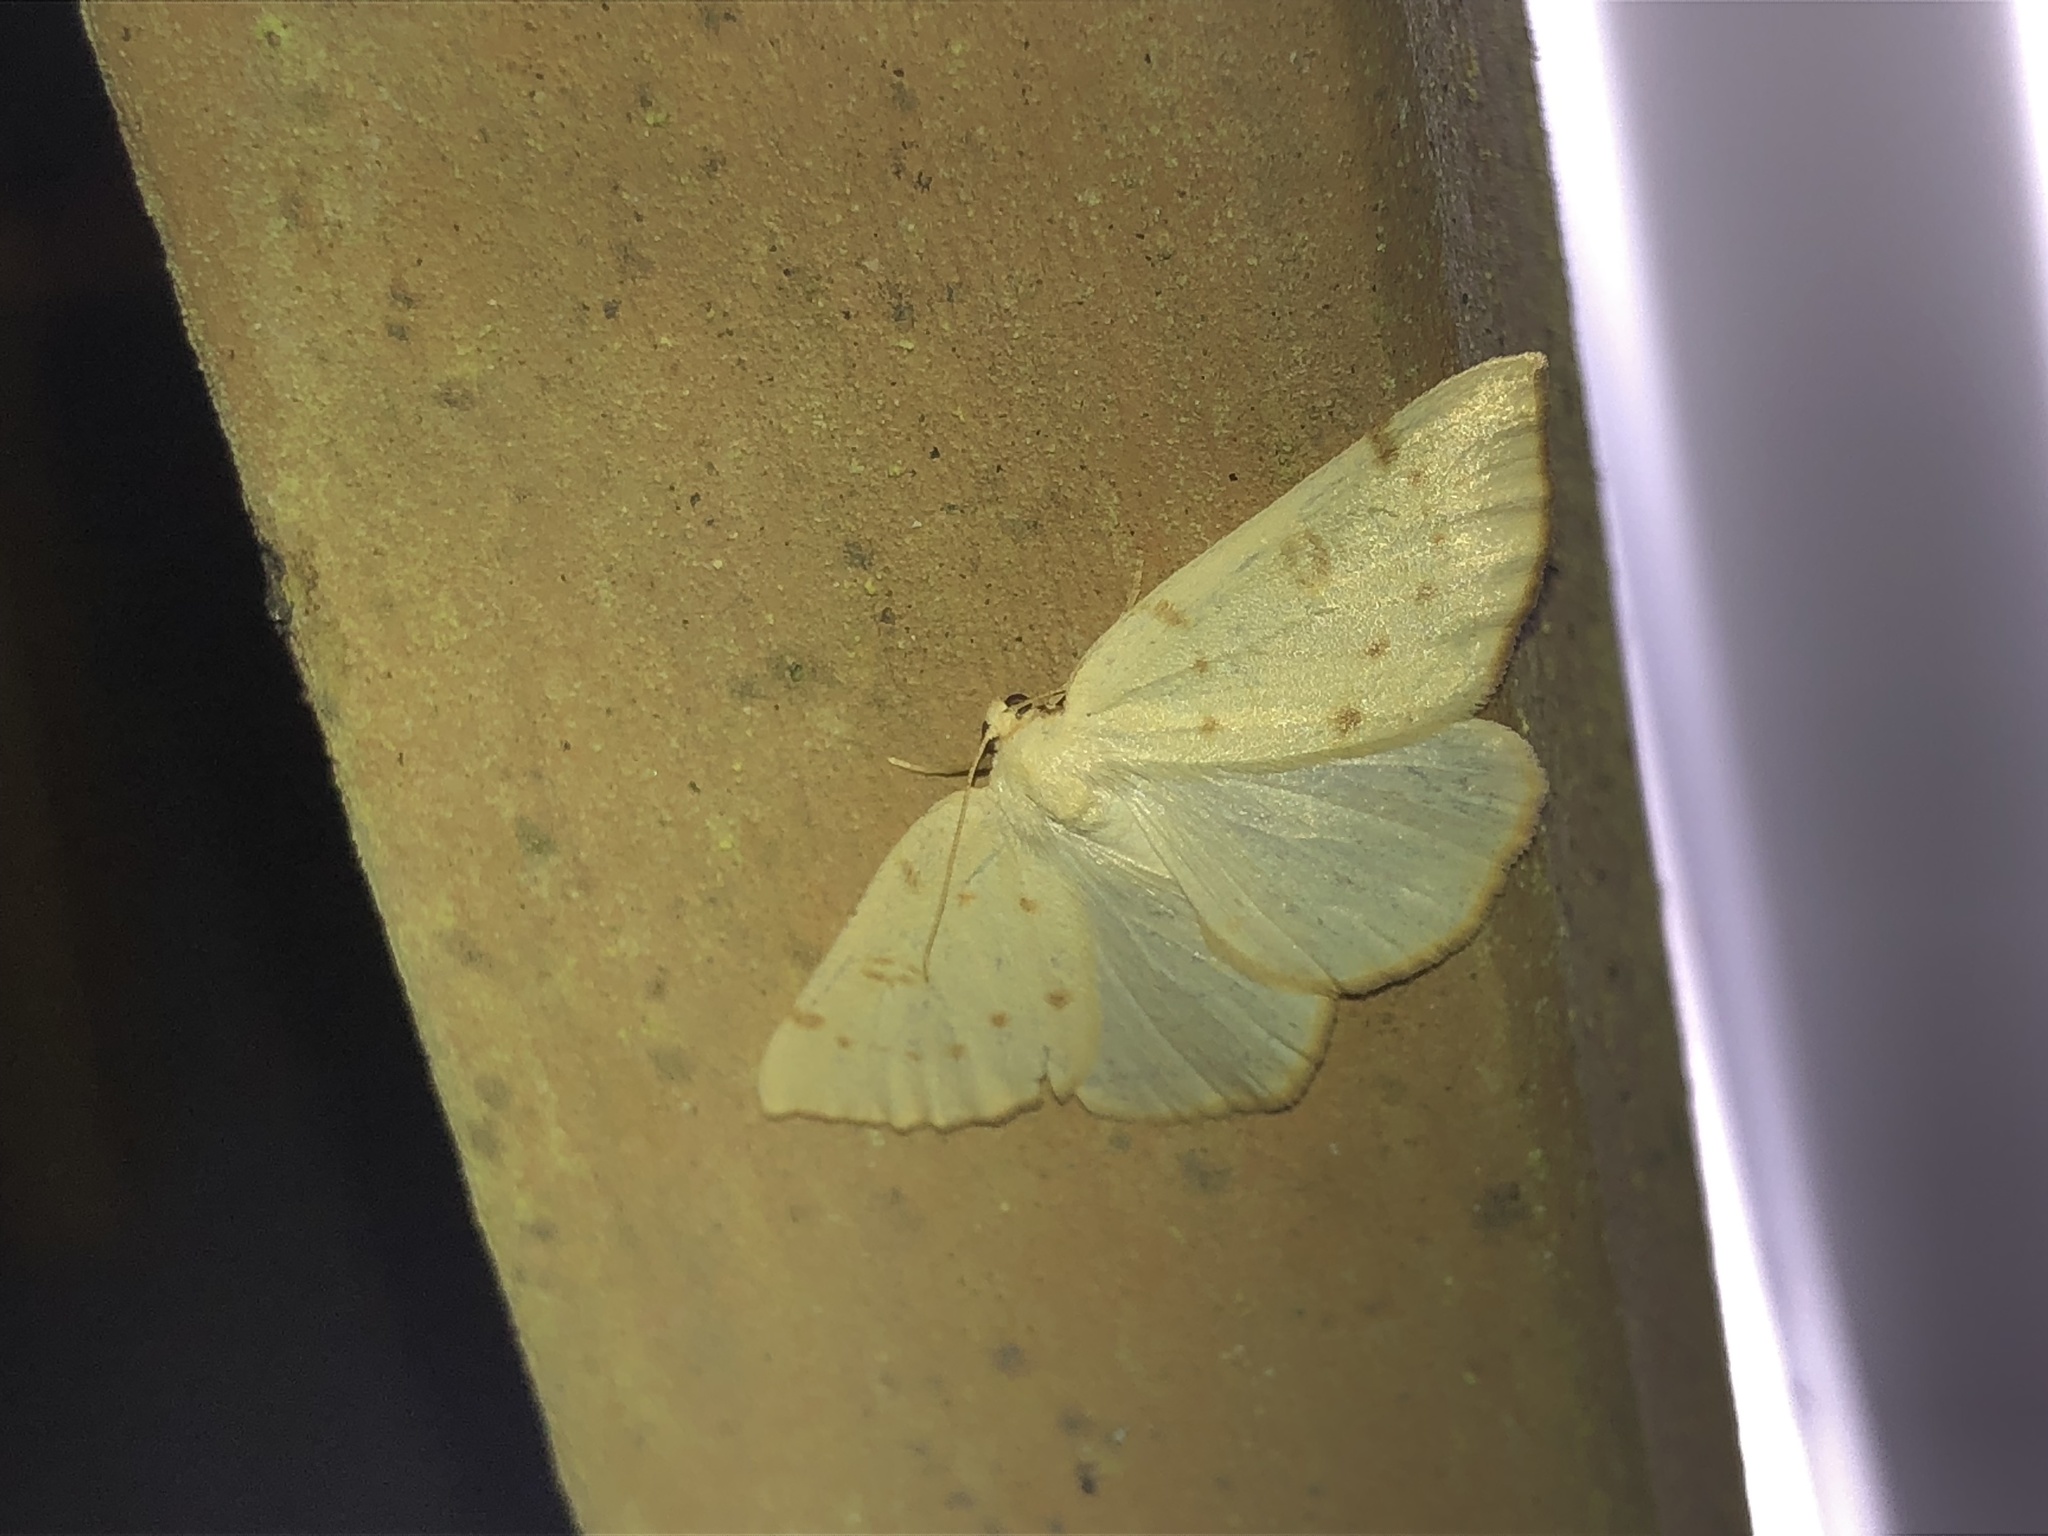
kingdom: Animalia
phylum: Arthropoda
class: Insecta
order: Lepidoptera
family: Geometridae
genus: Hesperumia
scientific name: Hesperumia sulphuraria
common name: Sulphur moth
